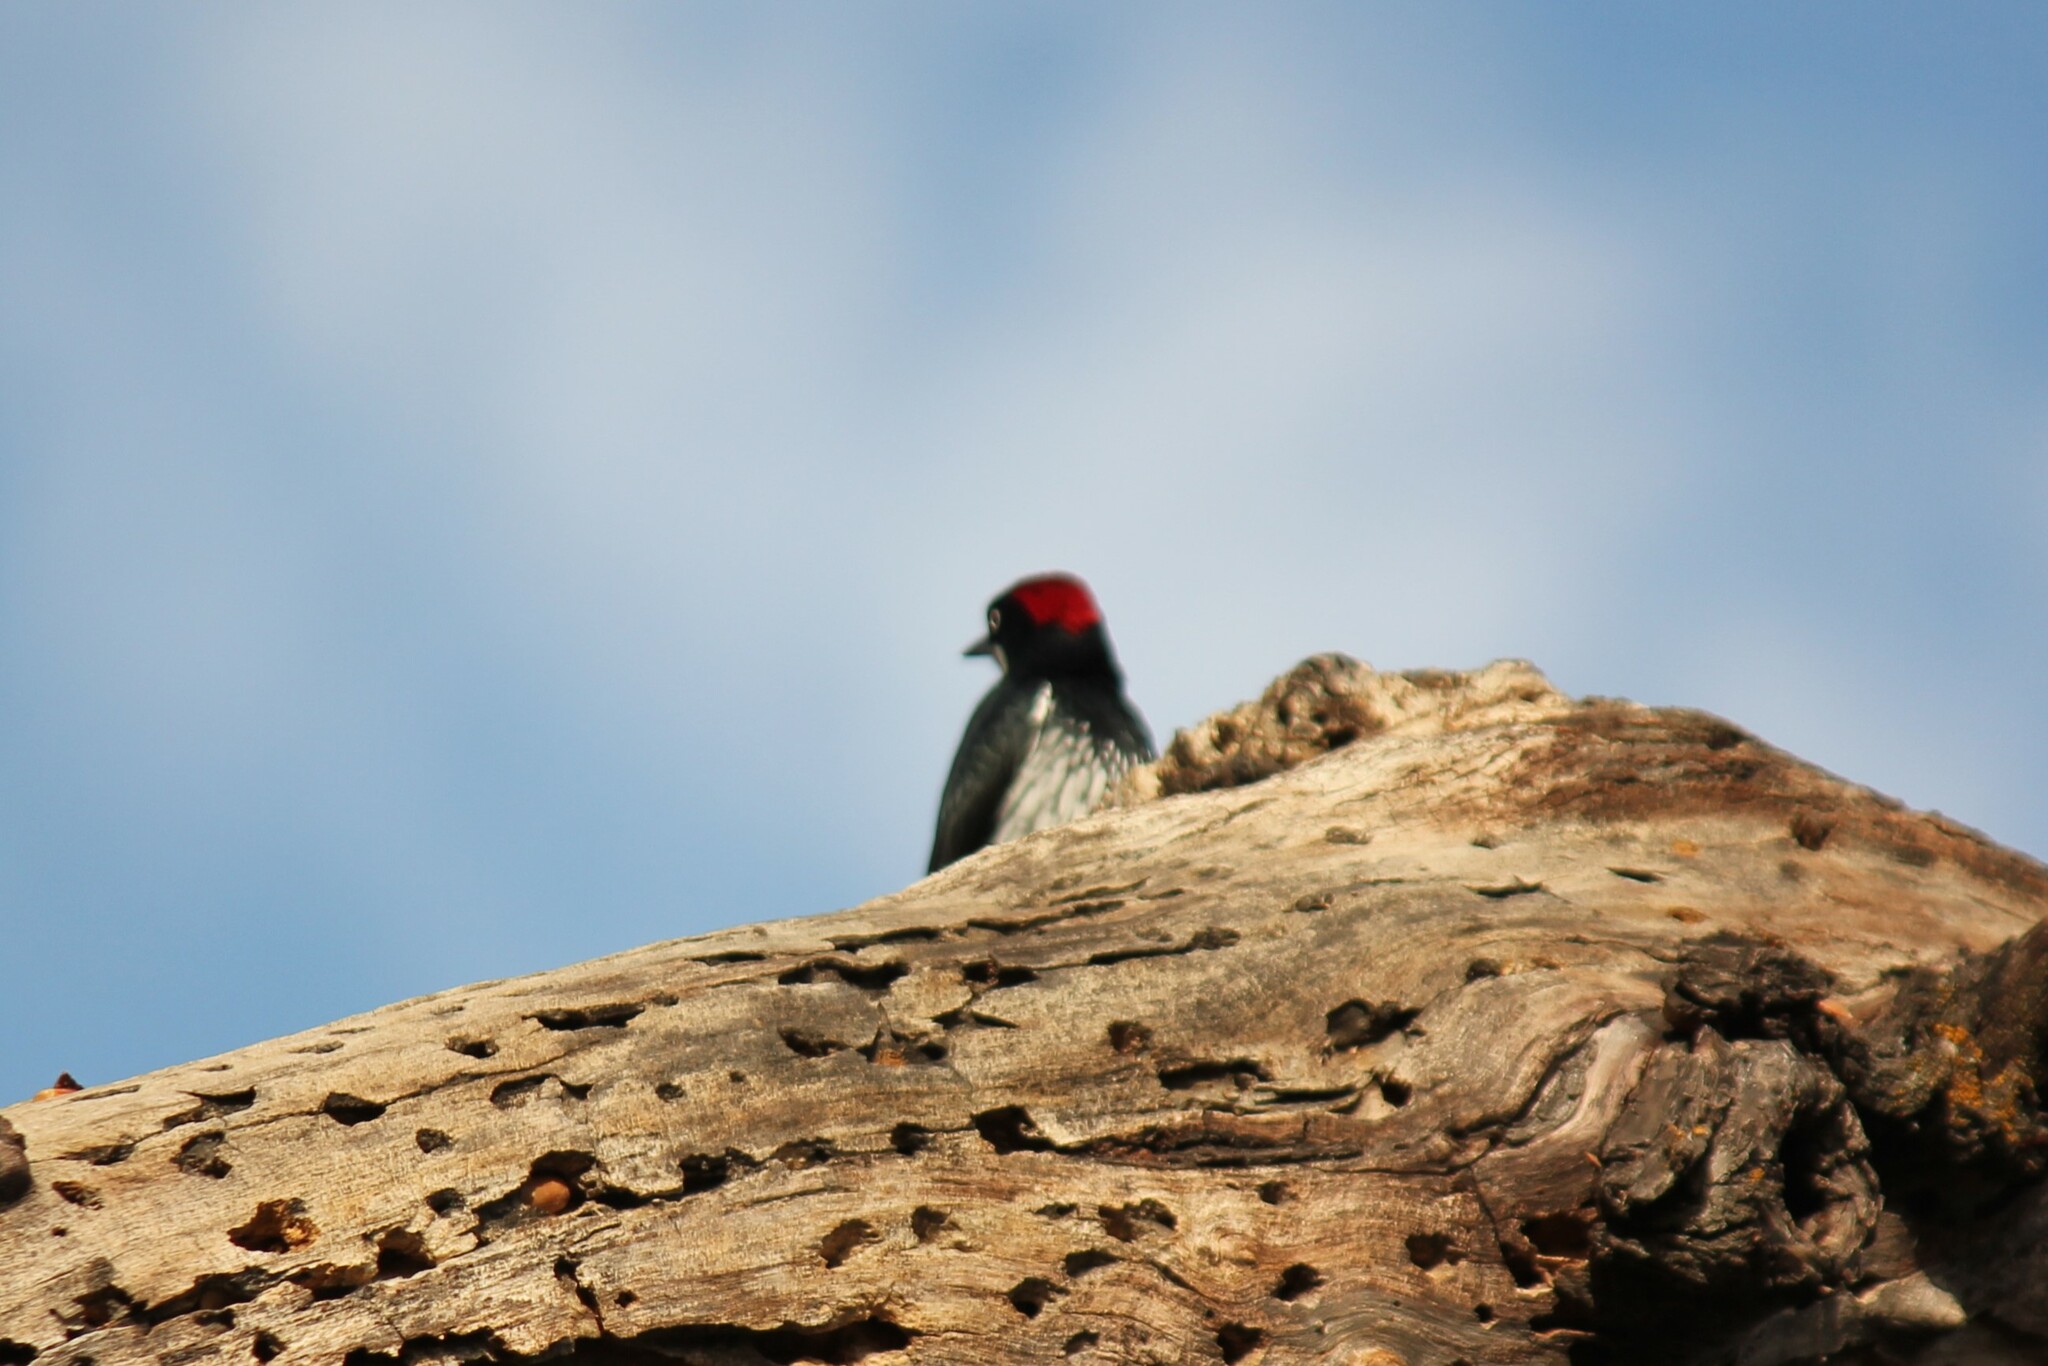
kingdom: Animalia
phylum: Chordata
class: Aves
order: Piciformes
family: Picidae
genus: Melanerpes
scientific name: Melanerpes formicivorus
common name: Acorn woodpecker
